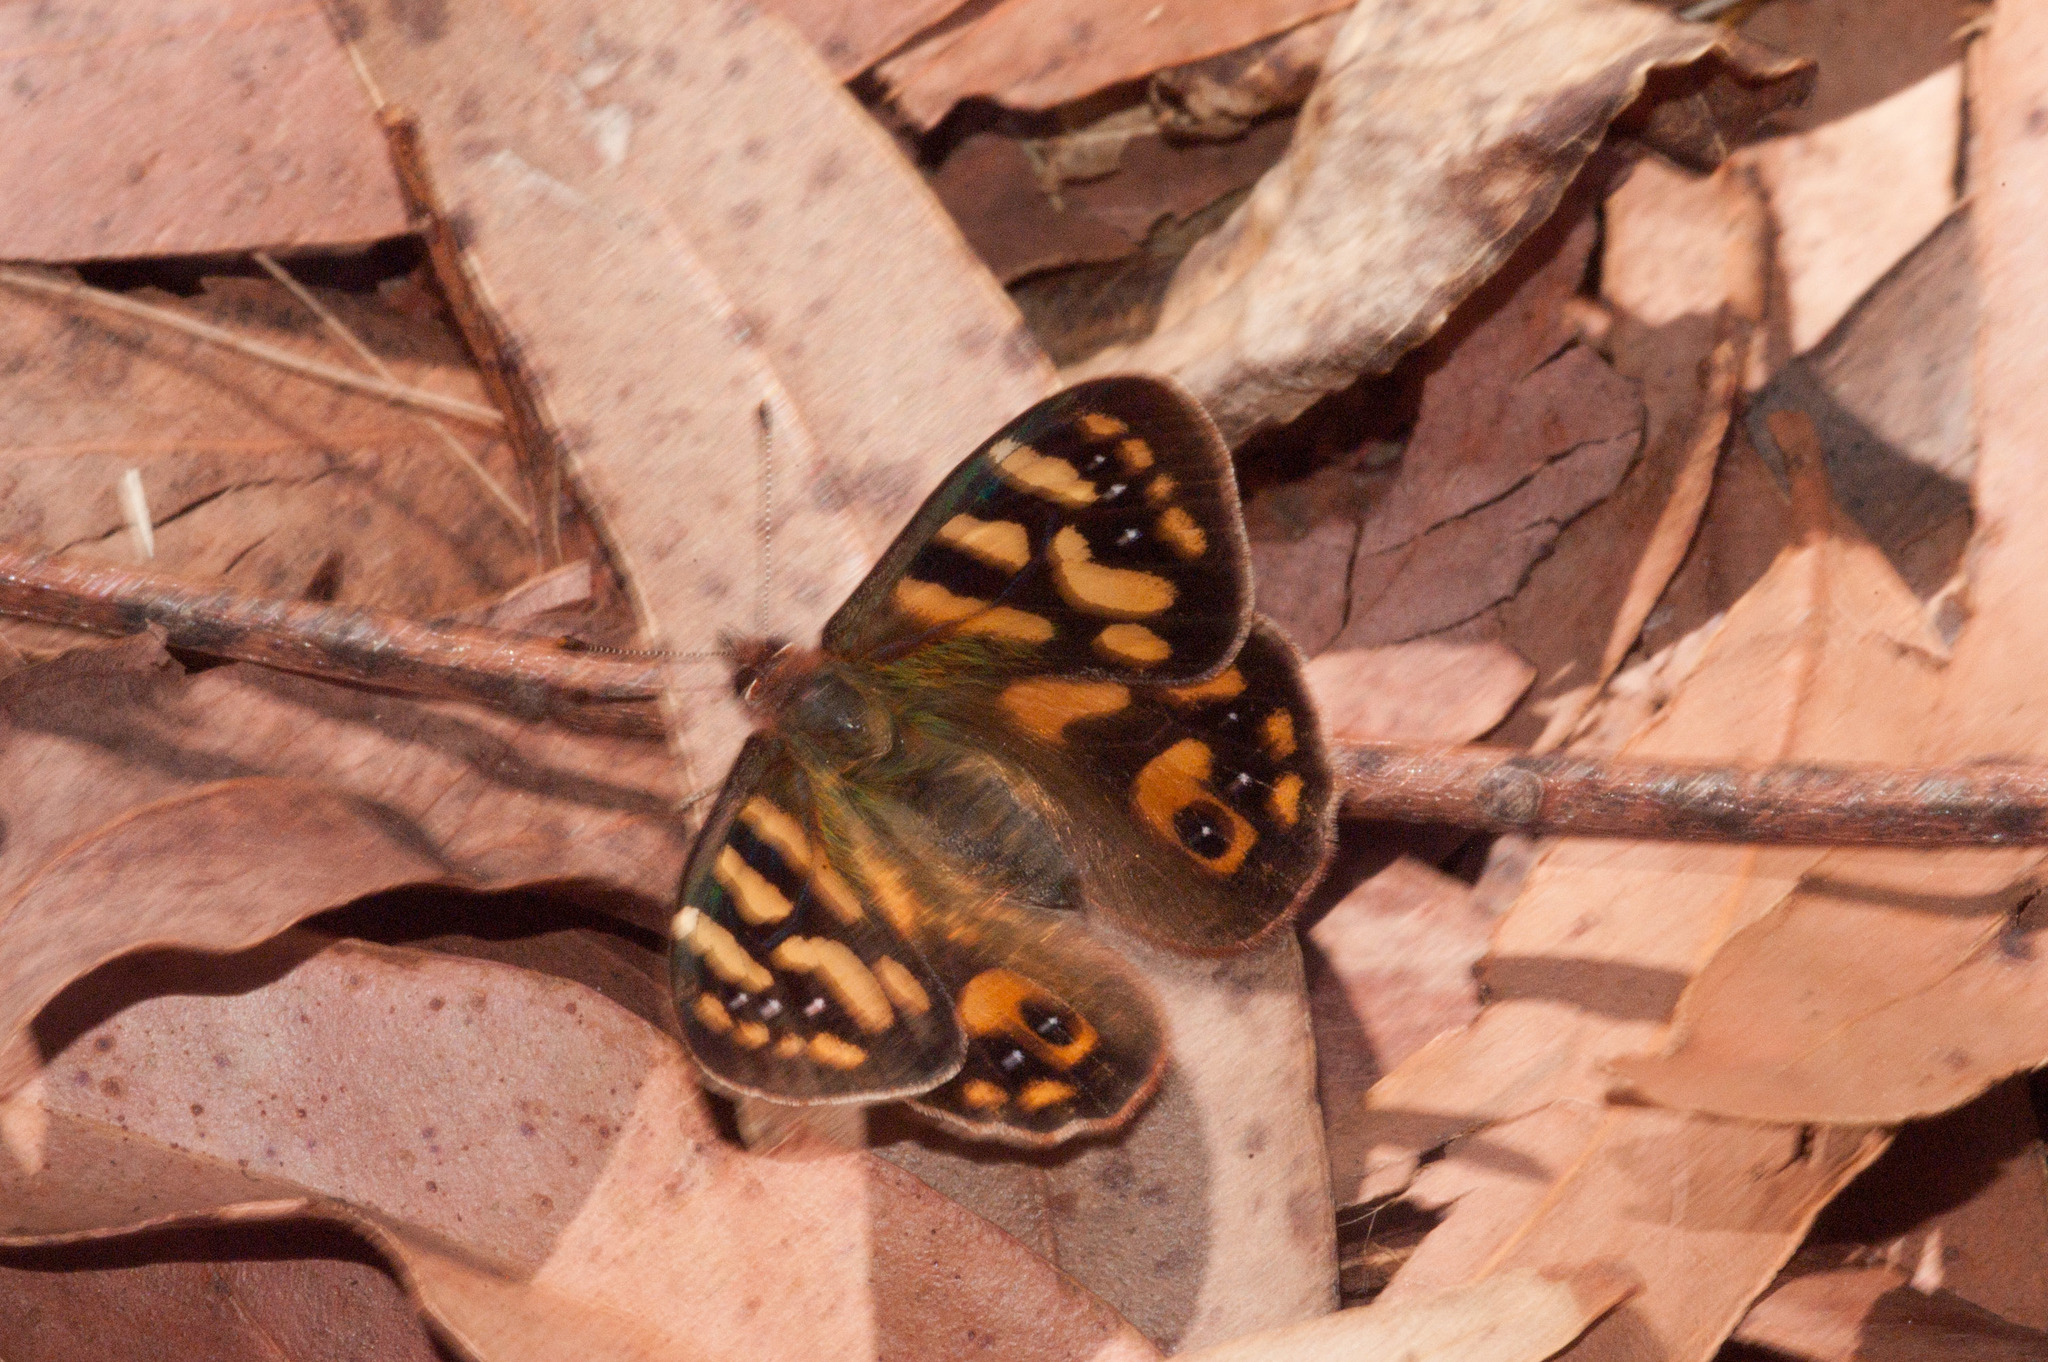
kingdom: Animalia
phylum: Arthropoda
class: Insecta
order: Lepidoptera
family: Nymphalidae
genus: Argynnina
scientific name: Argynnina cyrila
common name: Cyril's brown
